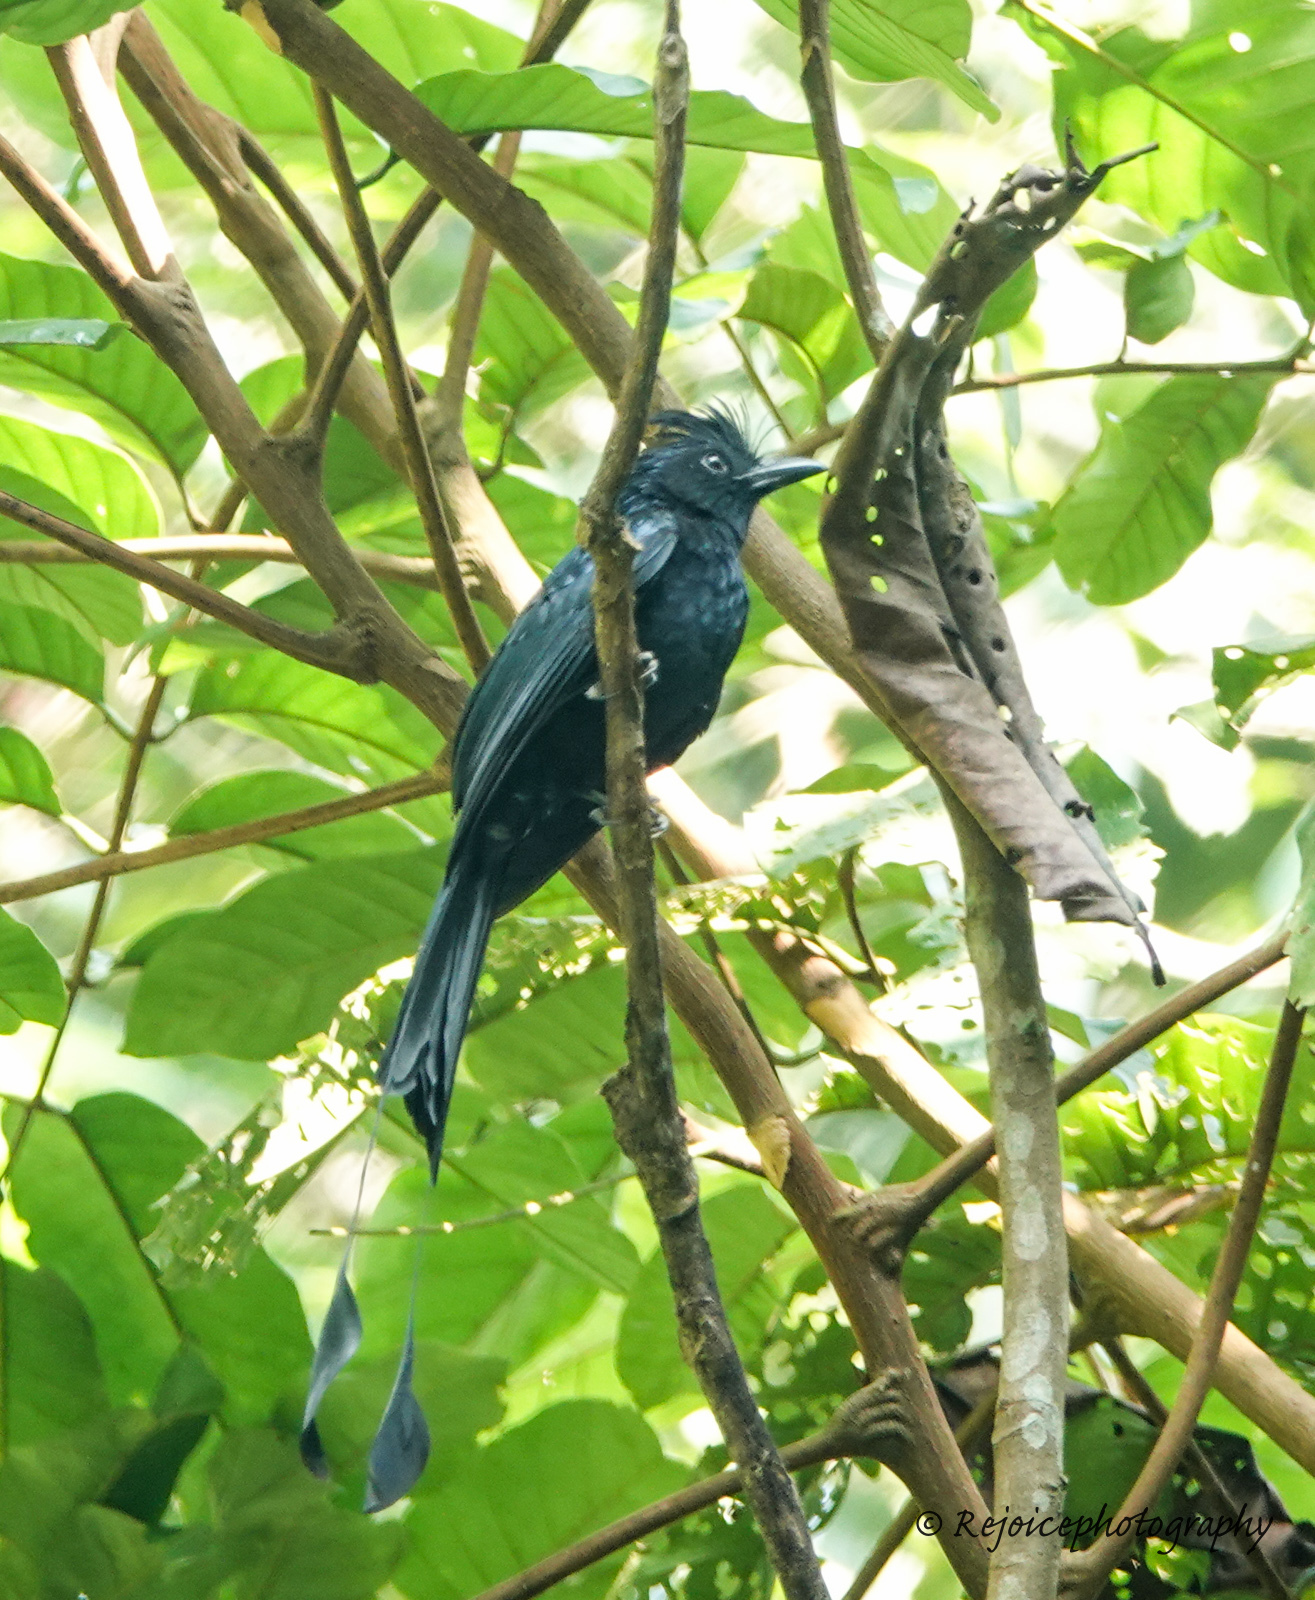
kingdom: Animalia
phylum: Chordata
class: Aves
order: Passeriformes
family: Dicruridae
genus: Dicrurus
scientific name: Dicrurus paradiseus
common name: Greater racket-tailed drongo
